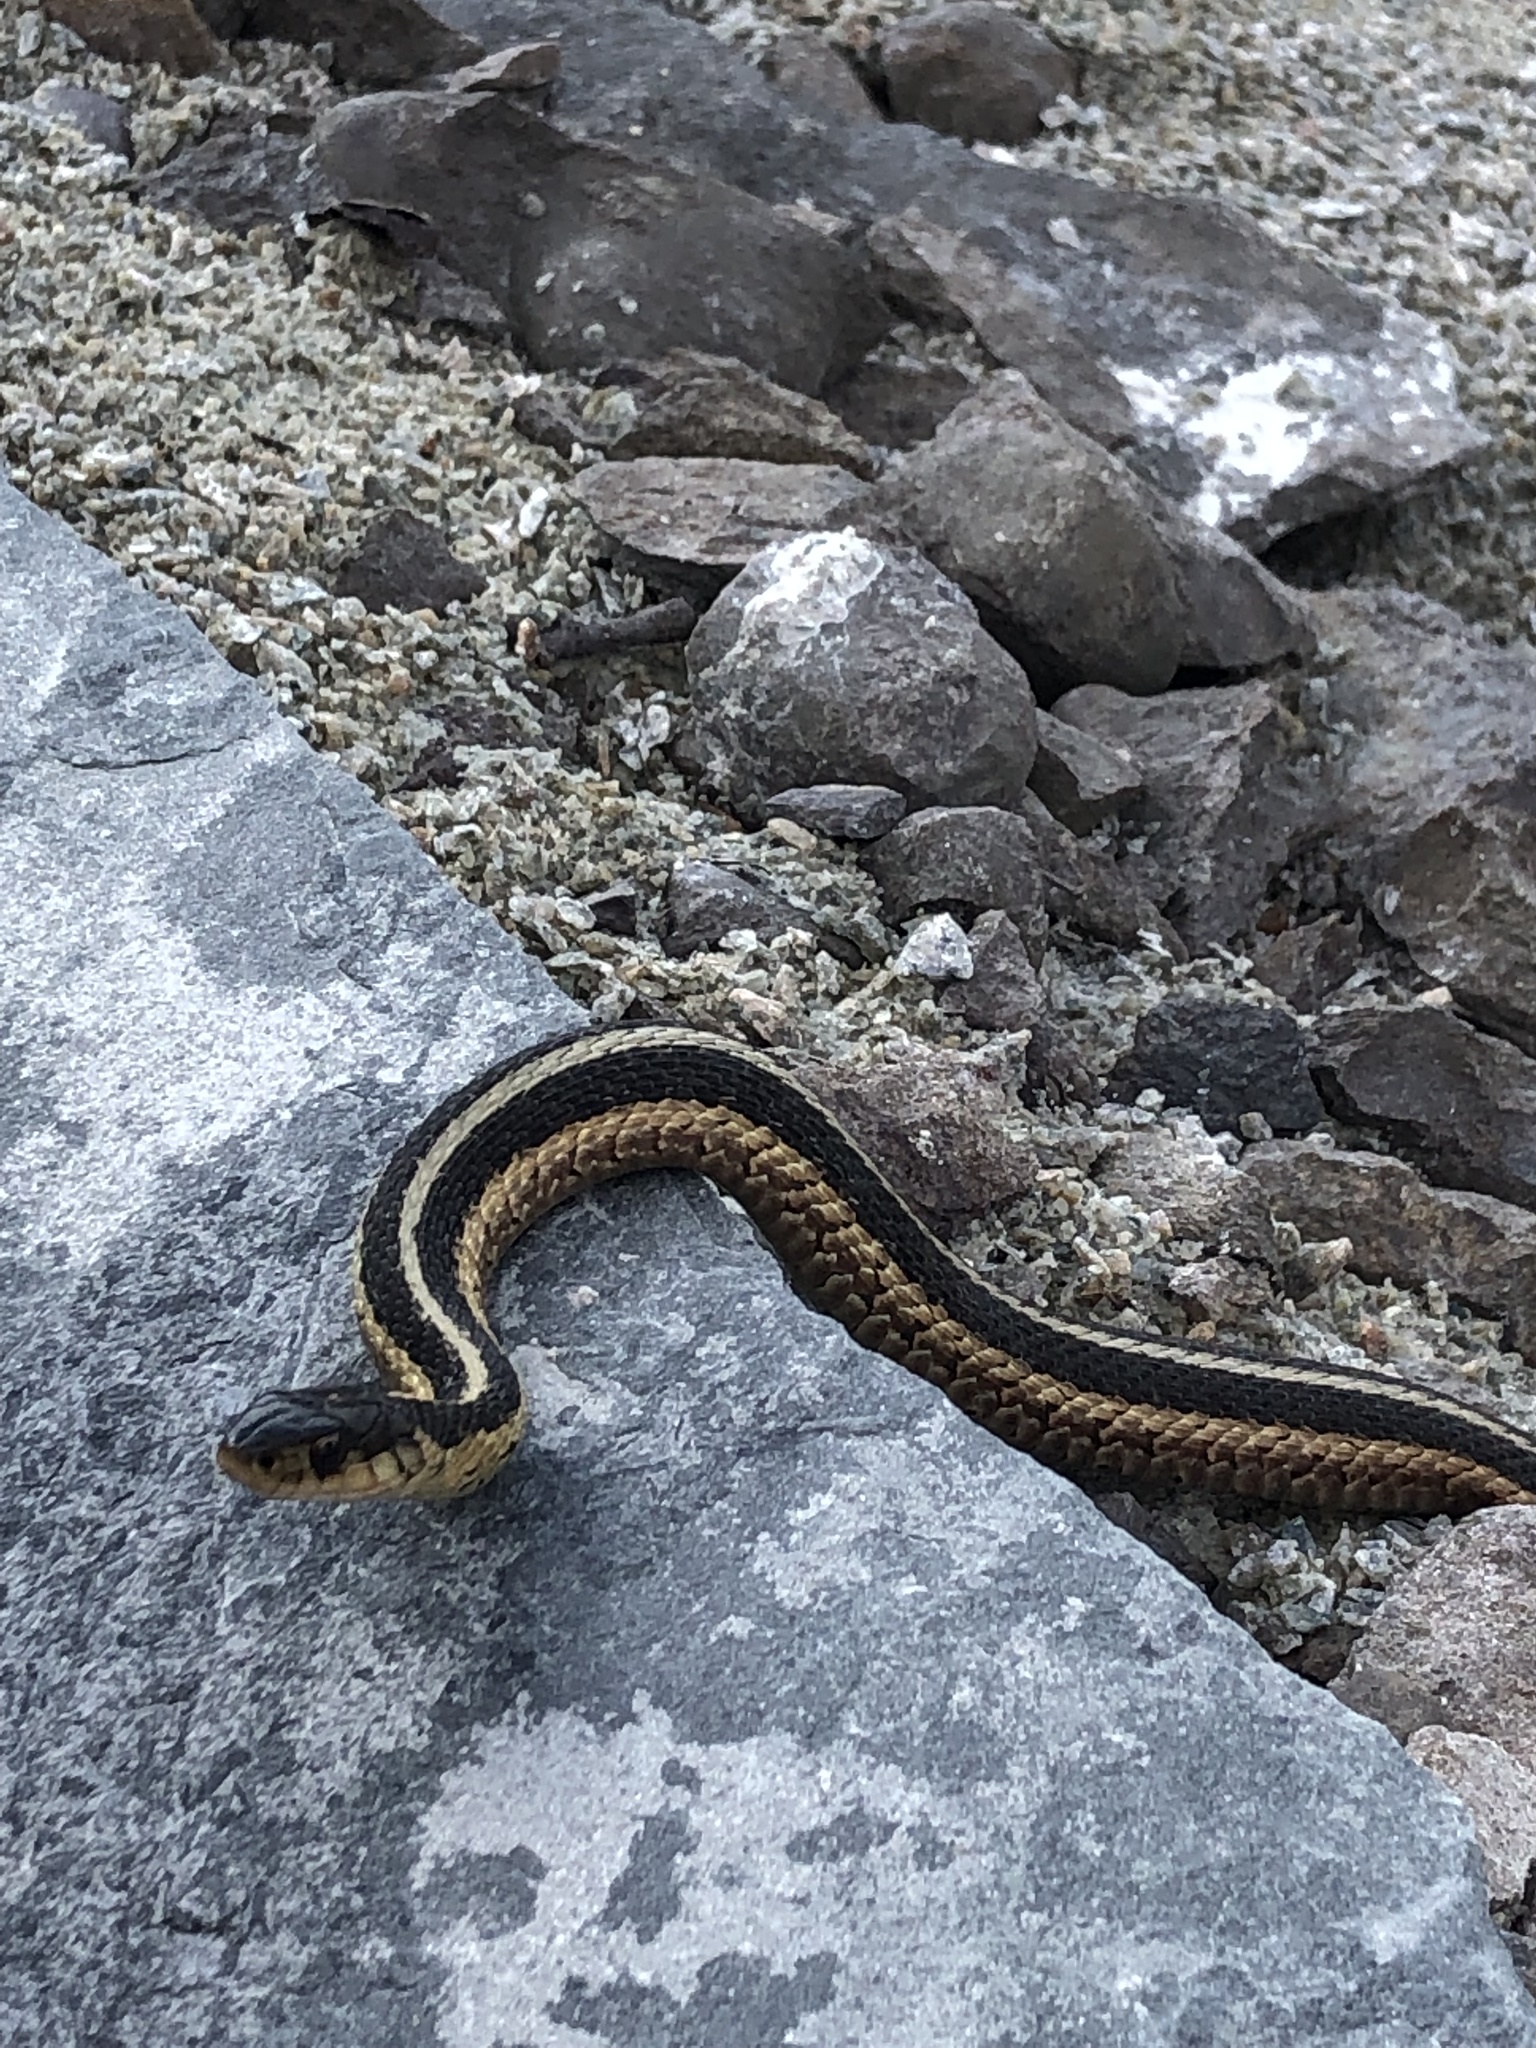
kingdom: Animalia
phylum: Chordata
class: Squamata
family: Colubridae
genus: Thamnophis
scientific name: Thamnophis sirtalis
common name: Common garter snake
